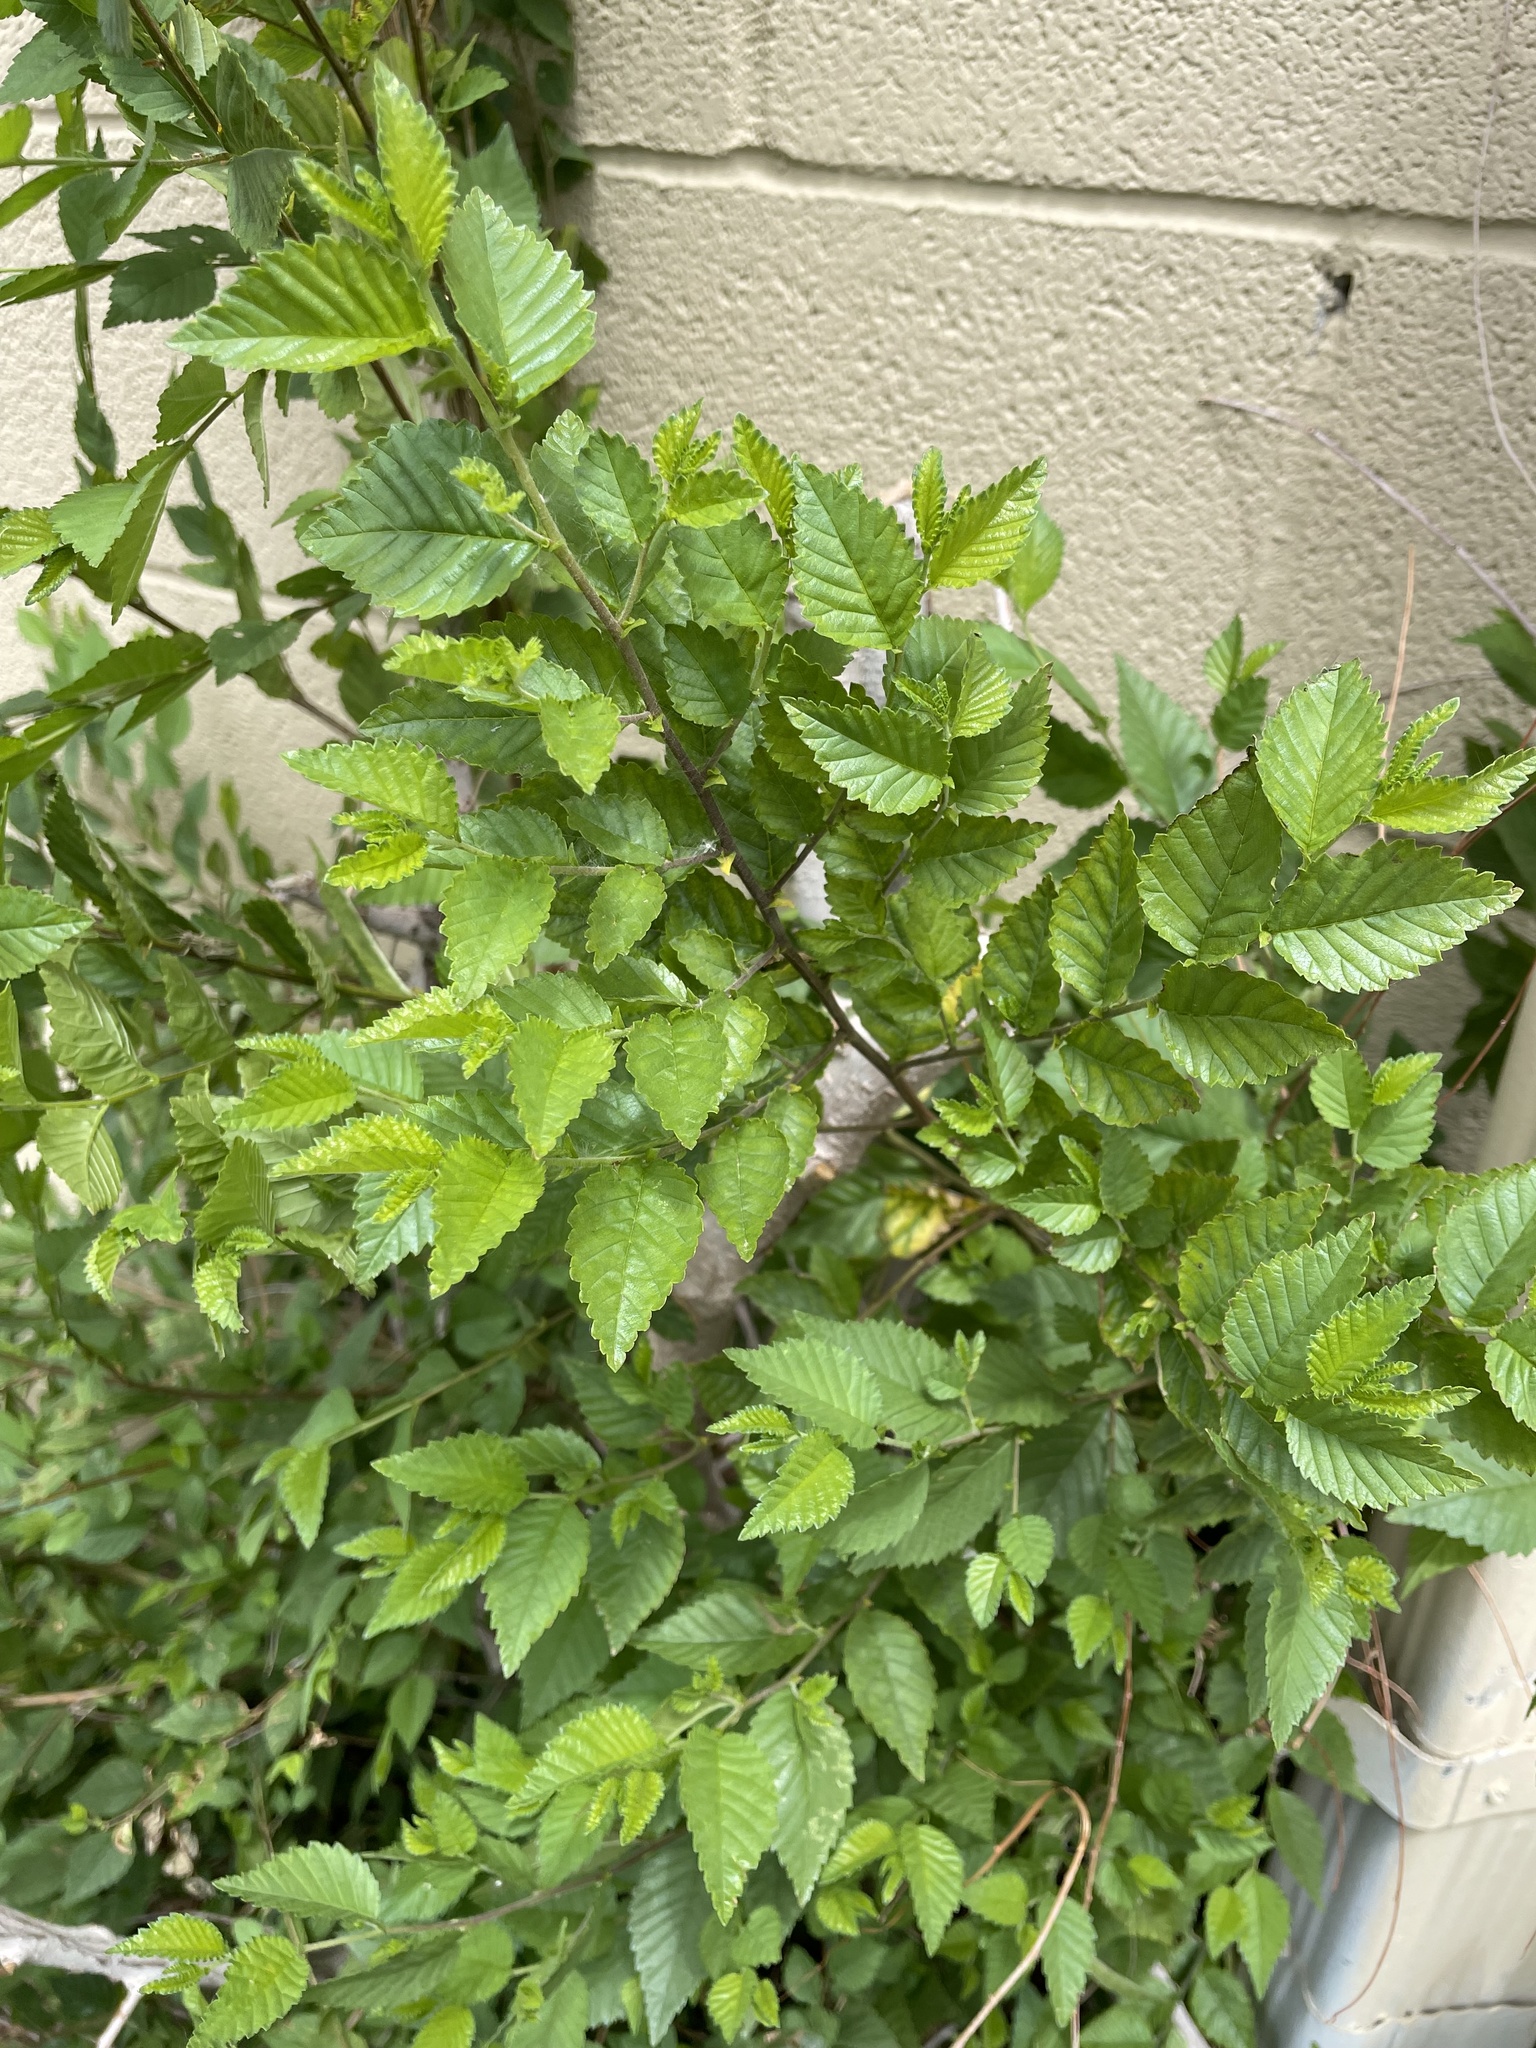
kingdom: Plantae
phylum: Tracheophyta
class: Magnoliopsida
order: Rosales
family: Ulmaceae
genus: Ulmus
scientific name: Ulmus parvifolia
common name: Chinese elm
